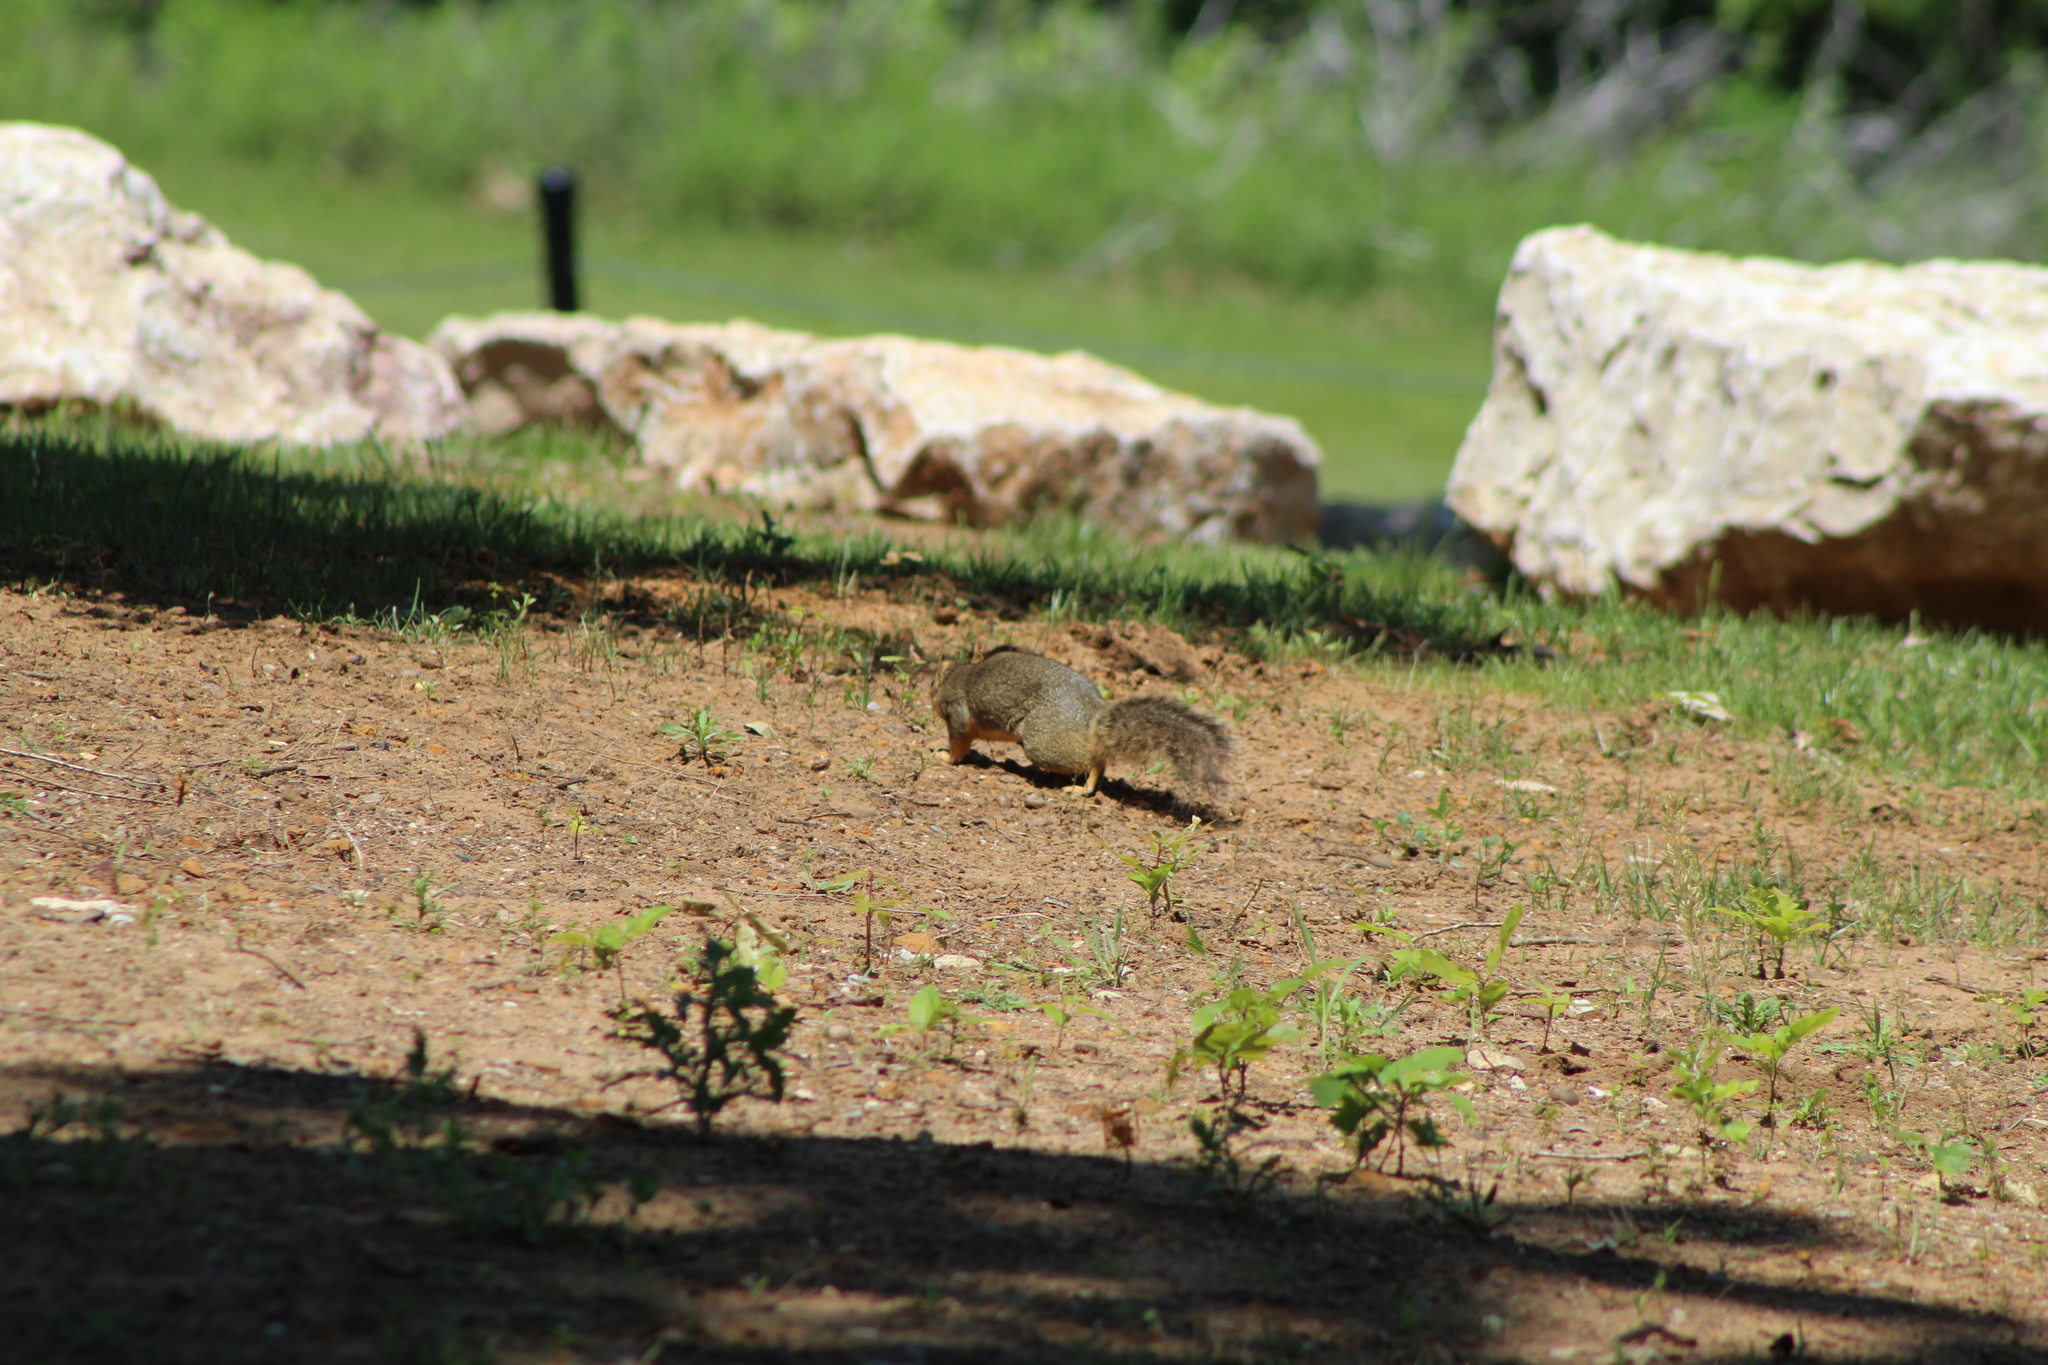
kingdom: Animalia
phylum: Chordata
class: Mammalia
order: Rodentia
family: Sciuridae
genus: Sciurus
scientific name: Sciurus niger
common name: Fox squirrel
